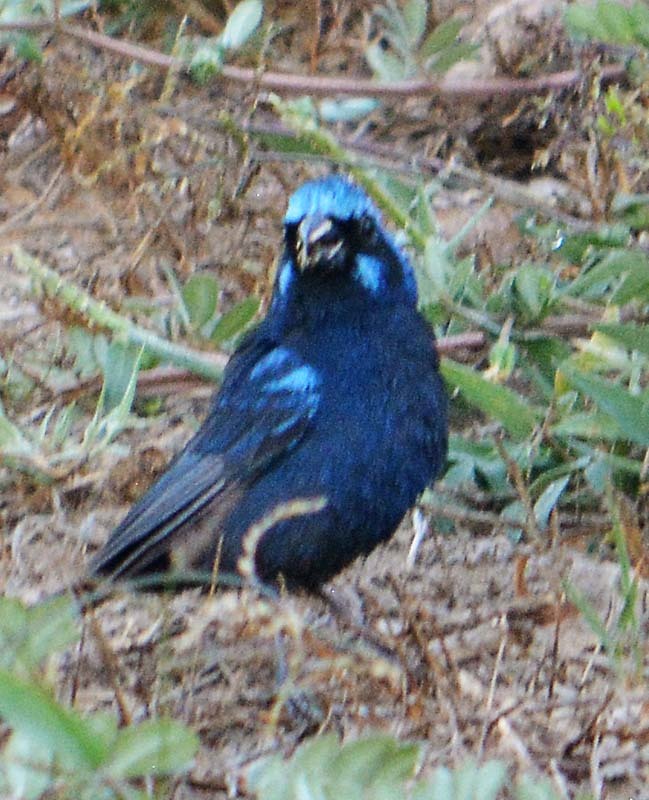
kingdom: Animalia
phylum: Chordata
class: Aves
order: Passeriformes
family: Cardinalidae
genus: Cyanocompsa
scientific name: Cyanocompsa parellina
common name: Blue bunting
